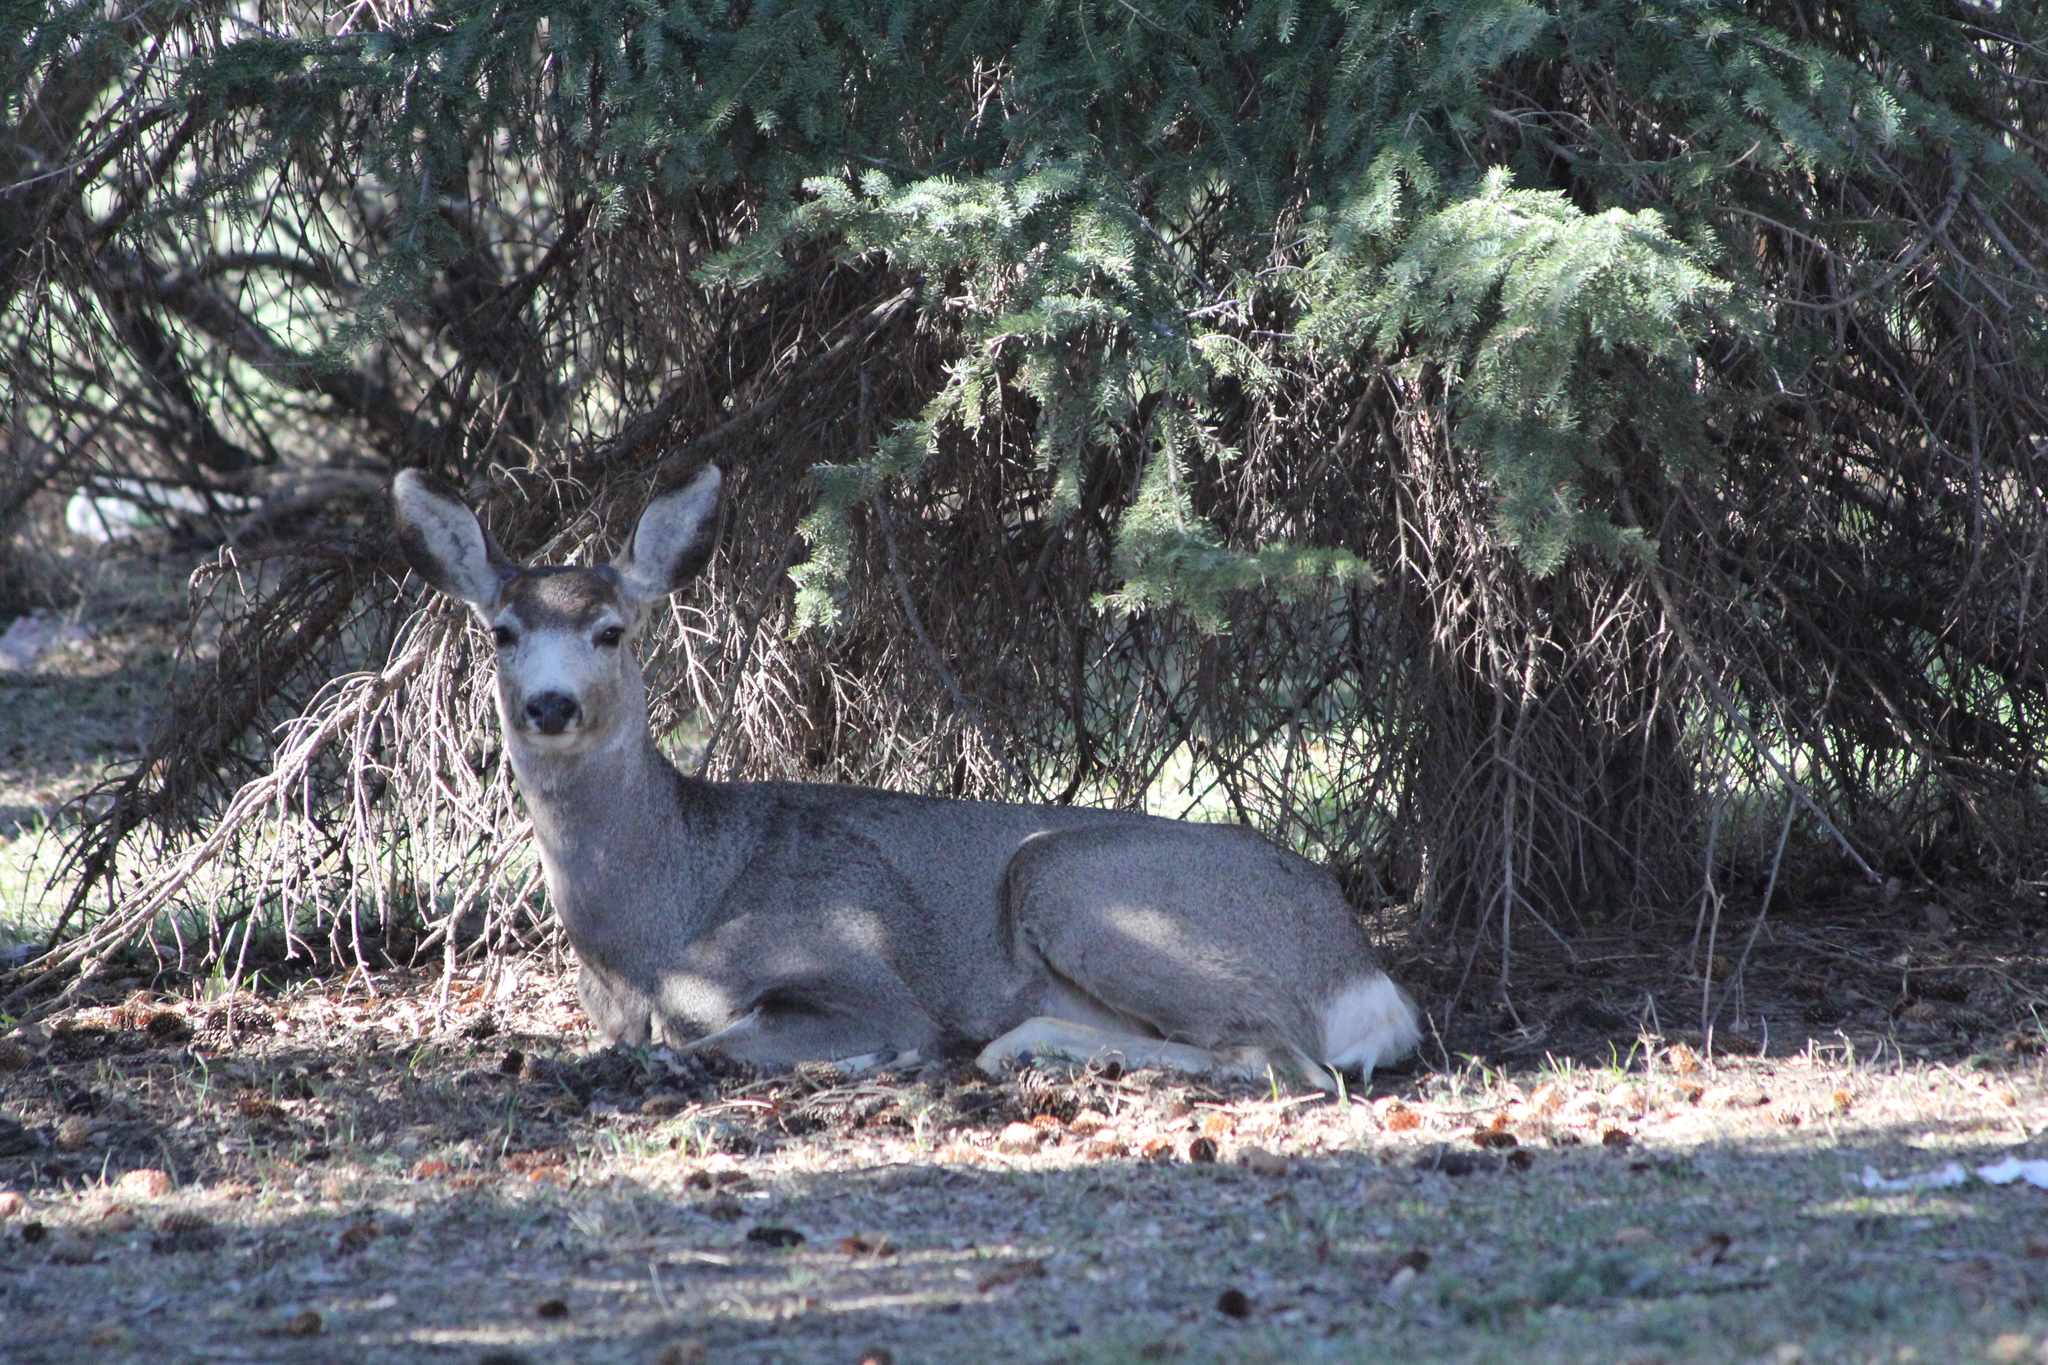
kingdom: Animalia
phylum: Chordata
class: Mammalia
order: Artiodactyla
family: Cervidae
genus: Odocoileus
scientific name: Odocoileus hemionus
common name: Mule deer
